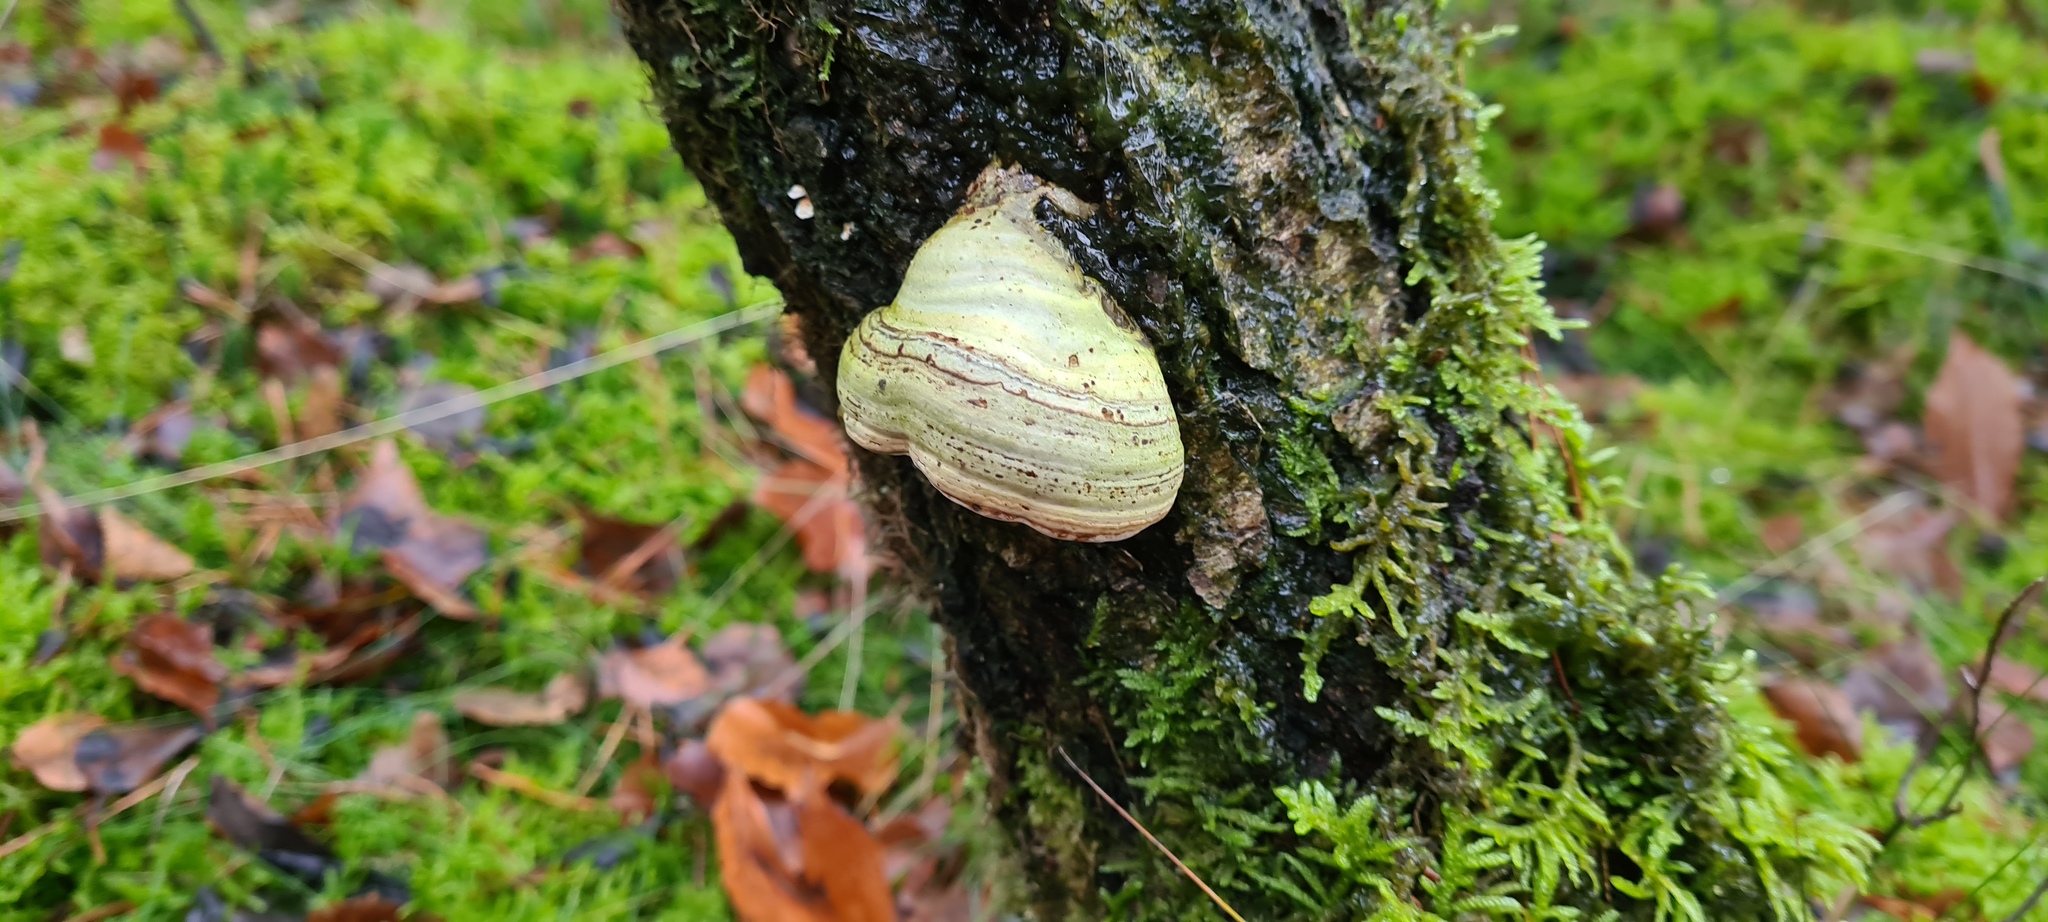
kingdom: Fungi
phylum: Basidiomycota
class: Agaricomycetes
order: Polyporales
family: Polyporaceae
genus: Fomes
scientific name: Fomes fomentarius
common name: Hoof fungus
